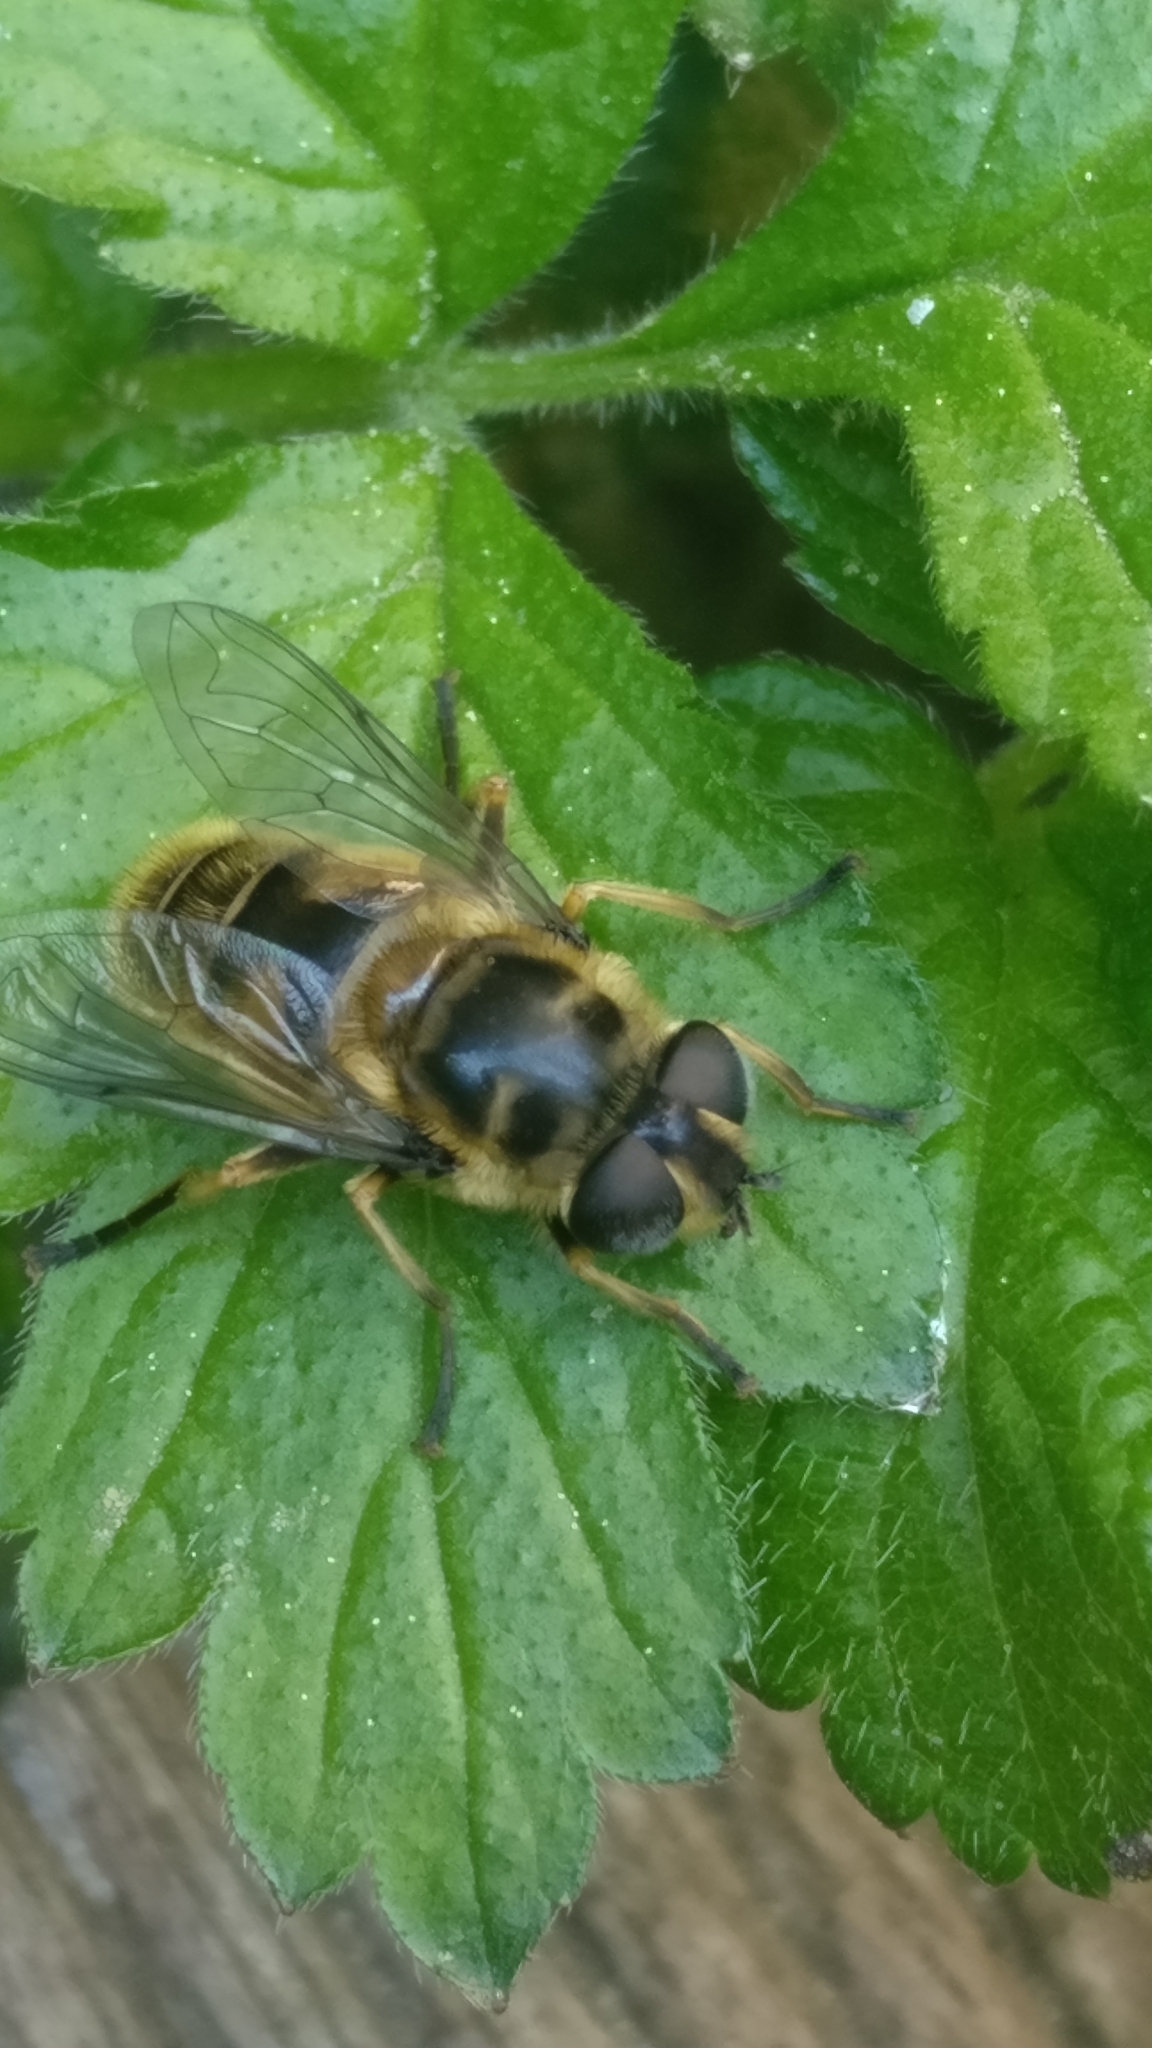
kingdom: Animalia
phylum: Arthropoda
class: Insecta
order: Diptera
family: Syrphidae
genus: Myathropa
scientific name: Myathropa florea
